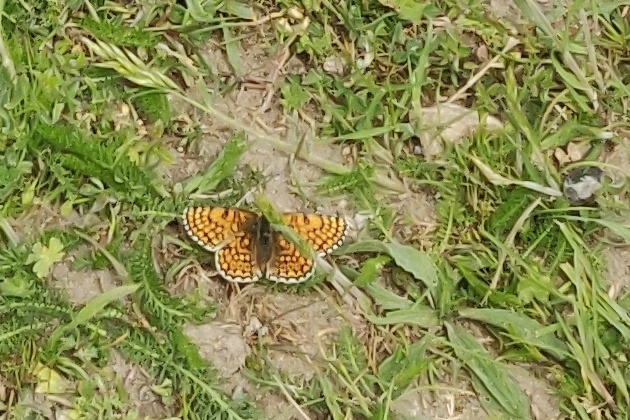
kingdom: Animalia
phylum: Arthropoda
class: Insecta
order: Lepidoptera
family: Nymphalidae
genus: Melitaea
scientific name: Melitaea cinxia
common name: Glanville fritillary
